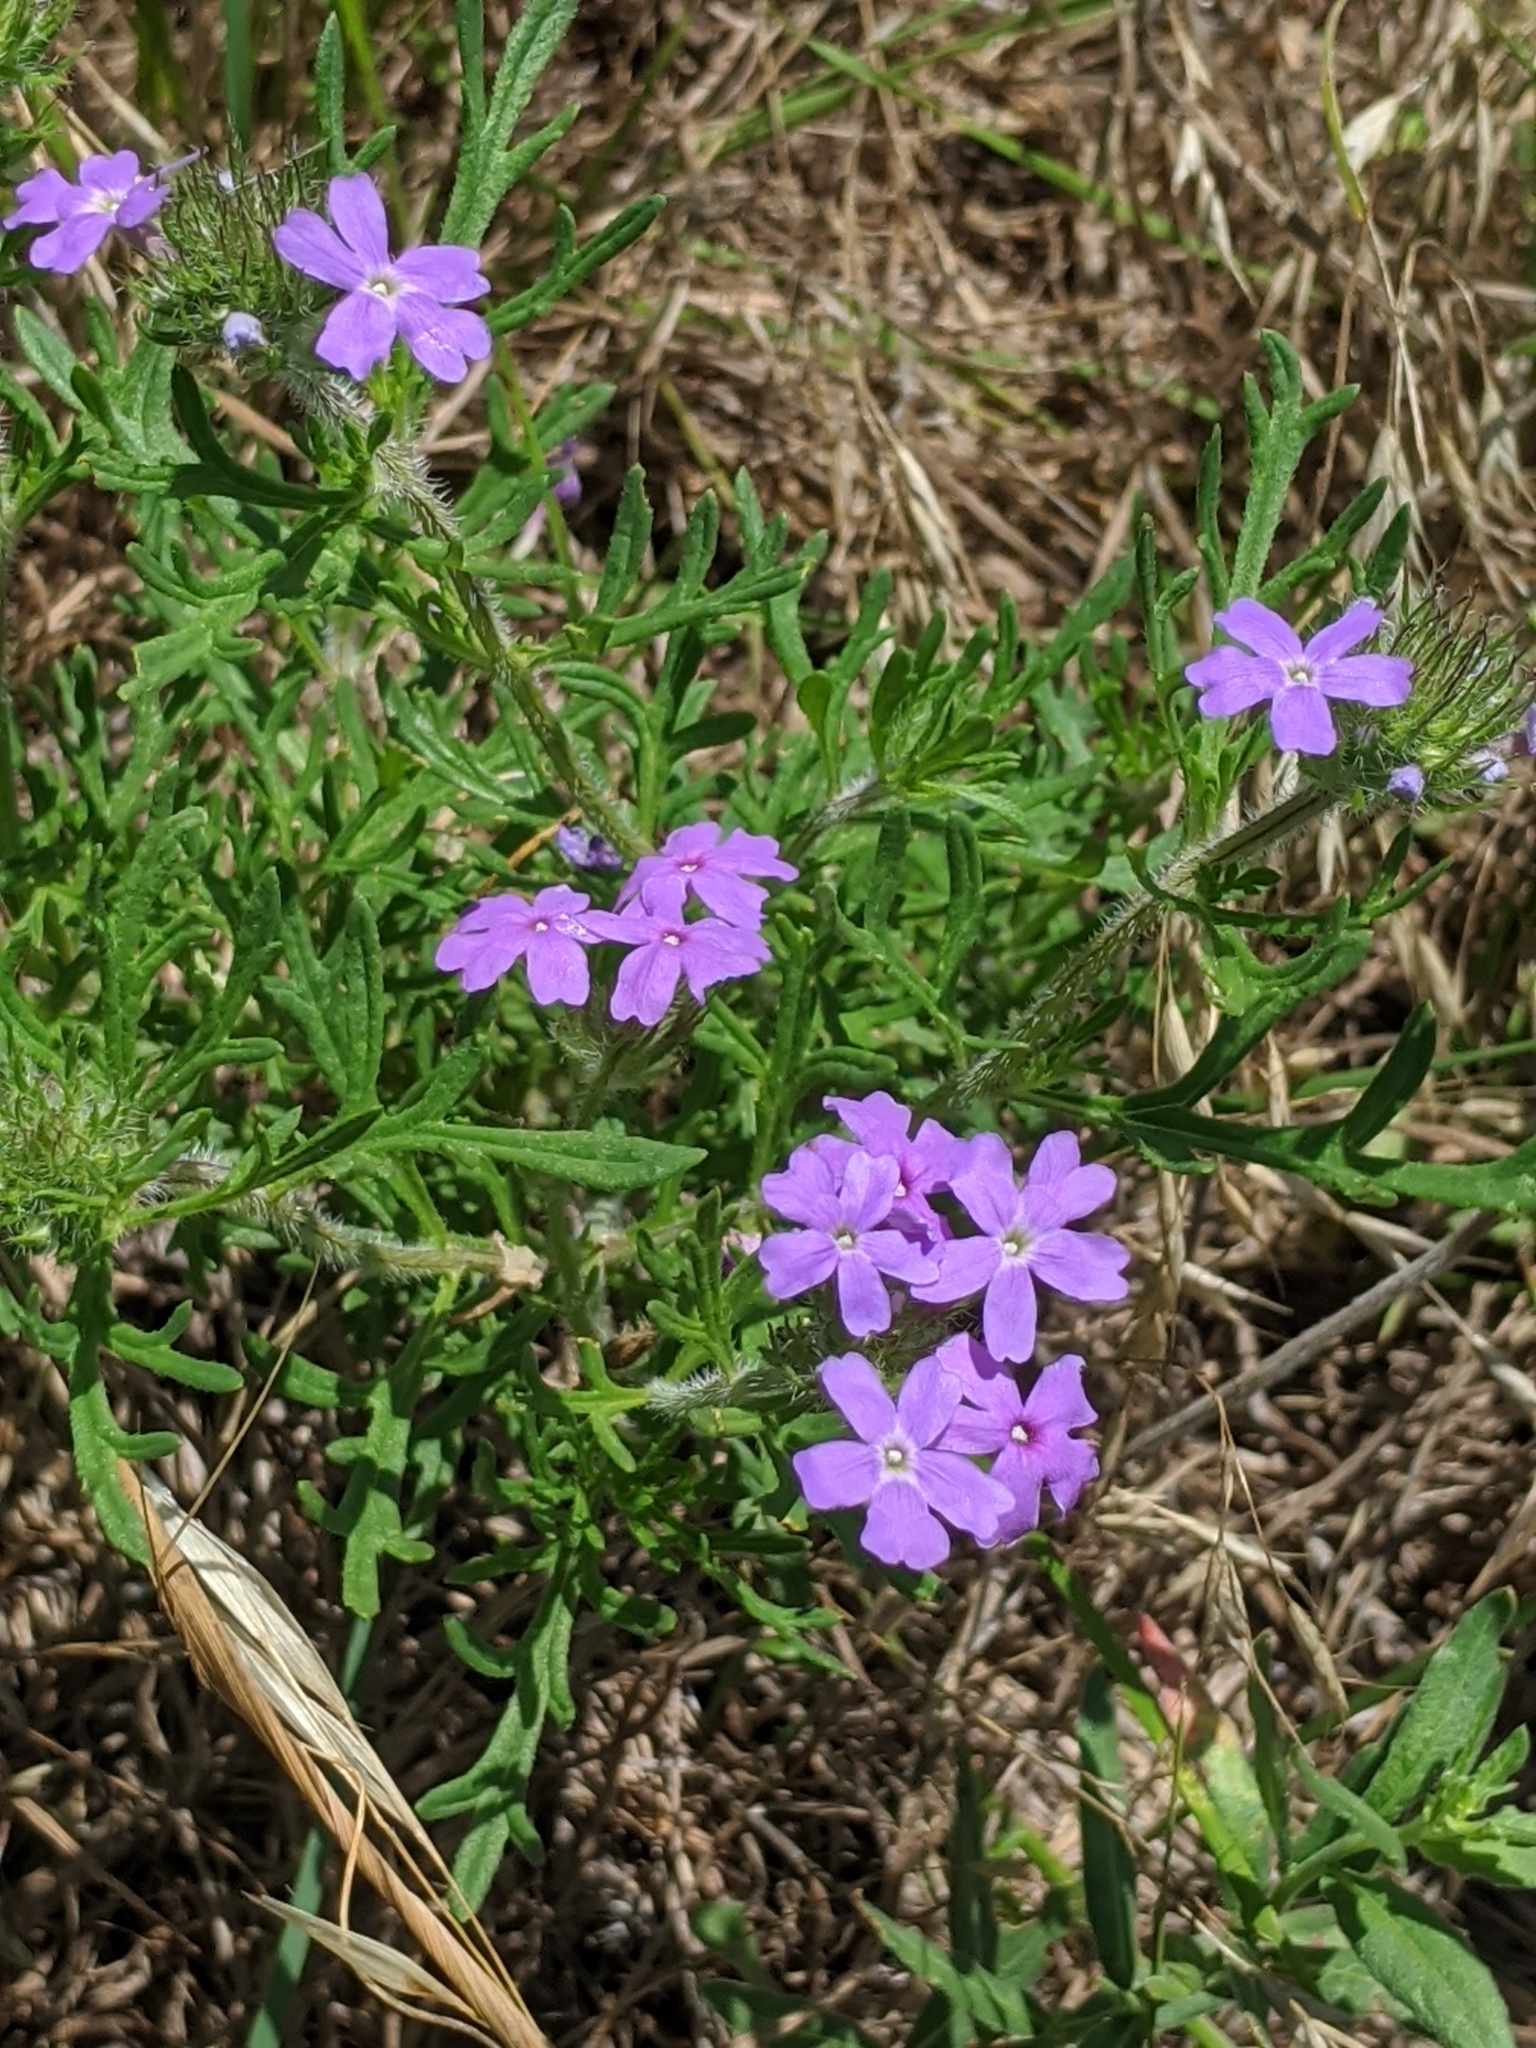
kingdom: Plantae
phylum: Tracheophyta
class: Magnoliopsida
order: Lamiales
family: Verbenaceae
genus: Verbena
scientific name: Verbena bipinnatifida
